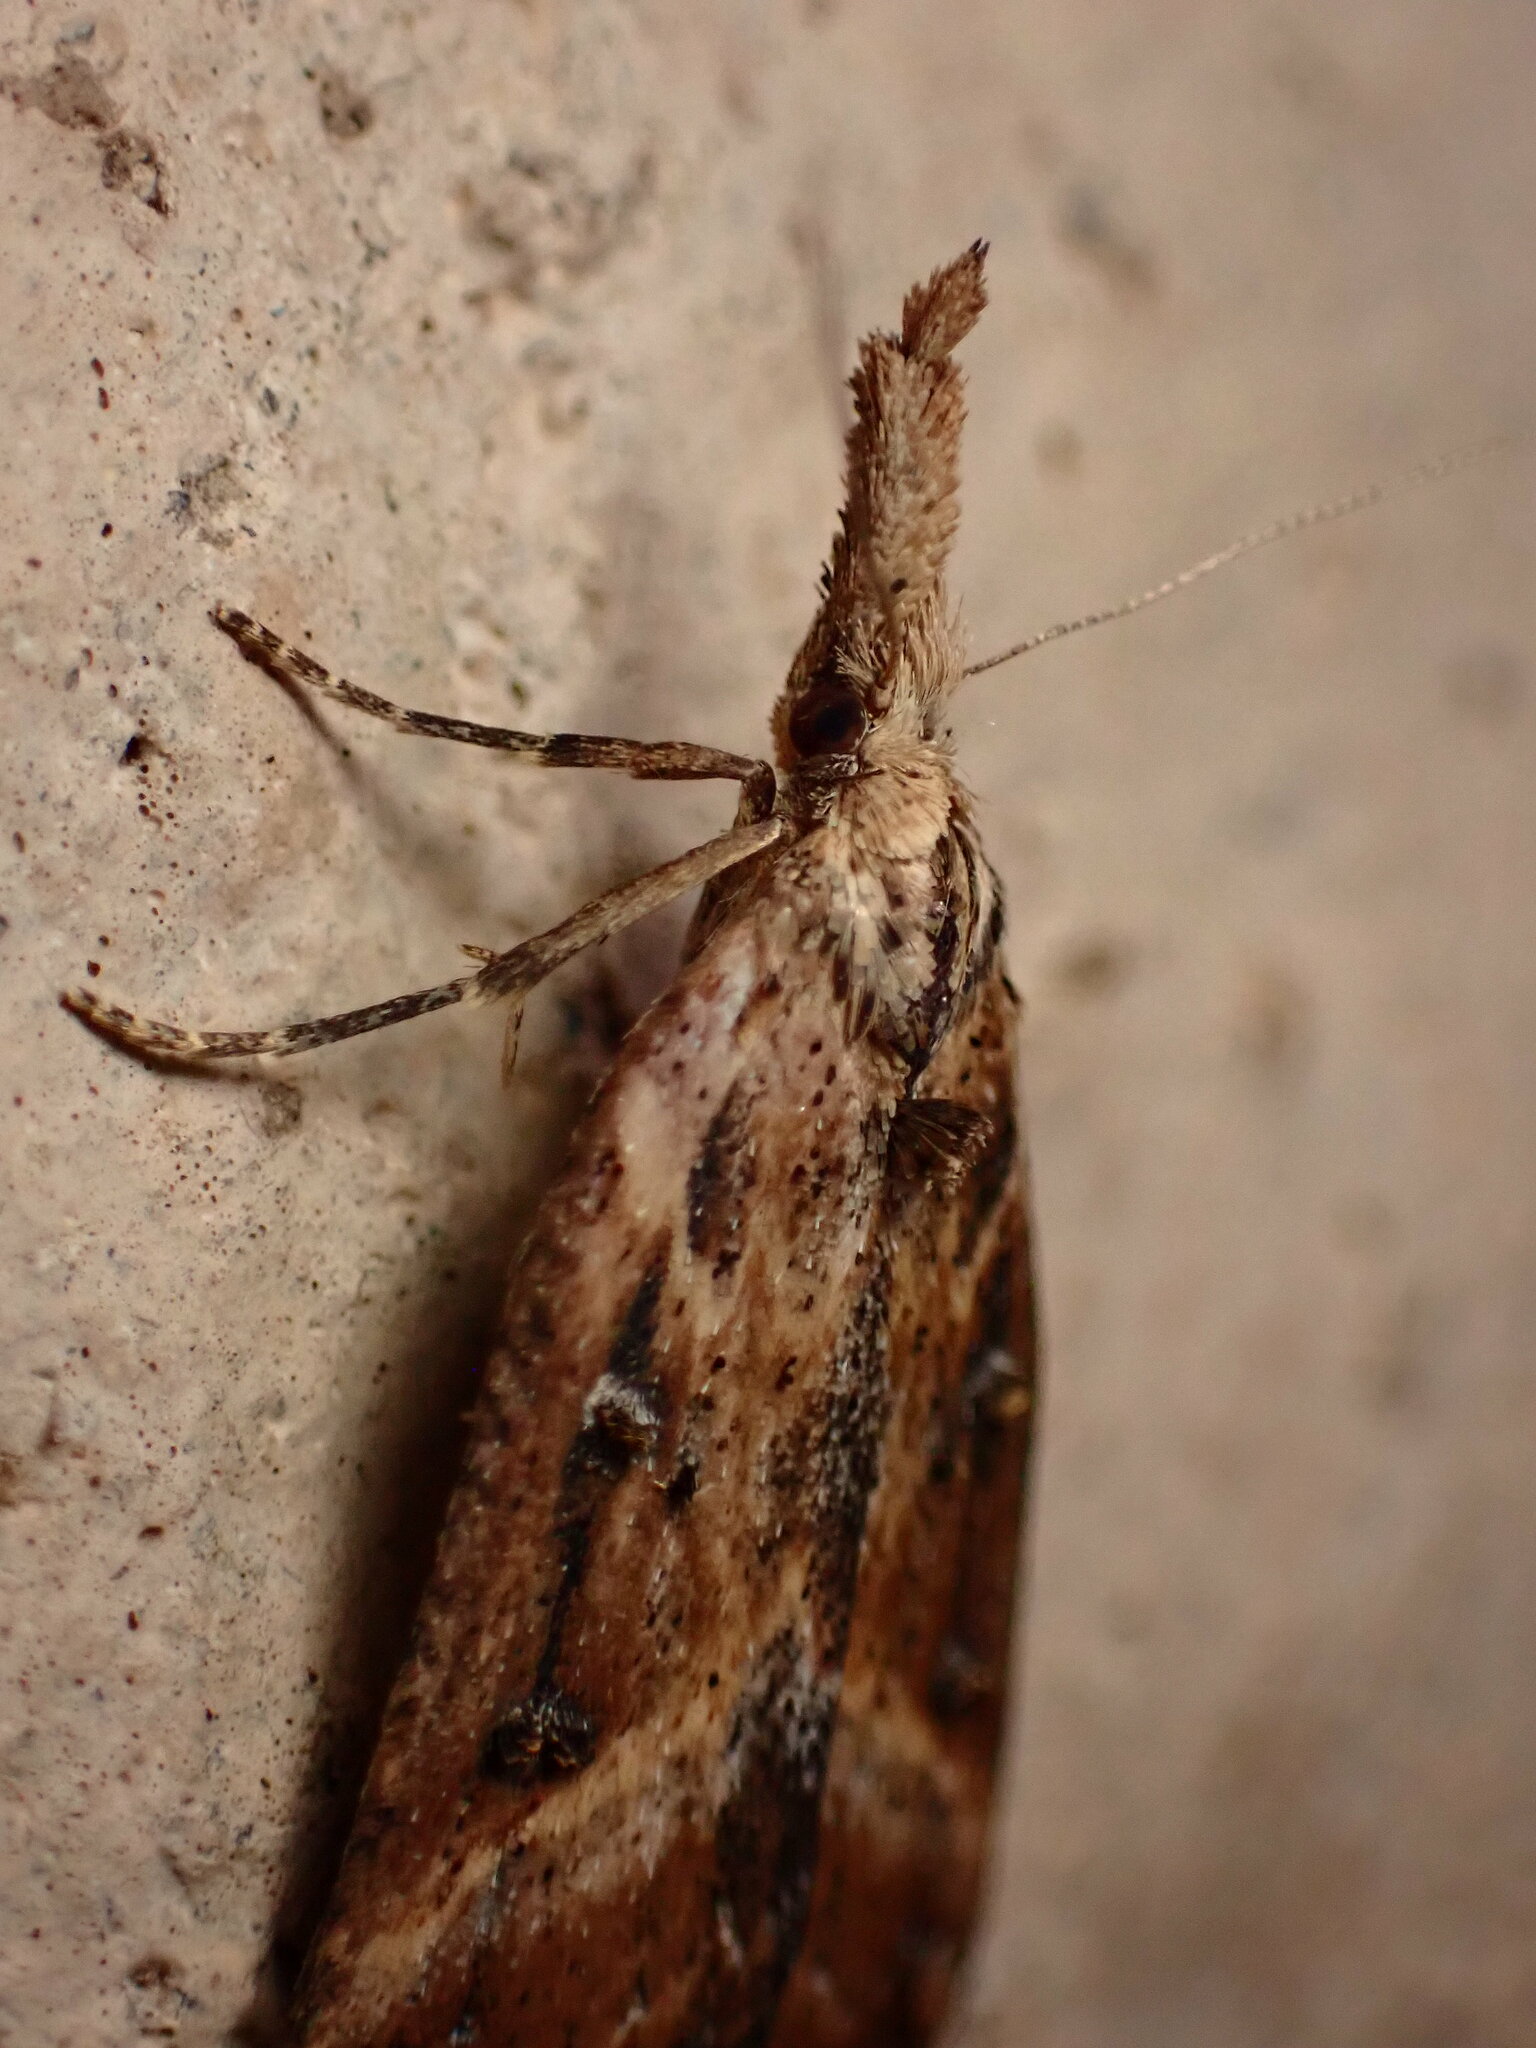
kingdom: Animalia
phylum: Arthropoda
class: Insecta
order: Lepidoptera
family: Erebidae
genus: Hypena
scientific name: Hypena californica
